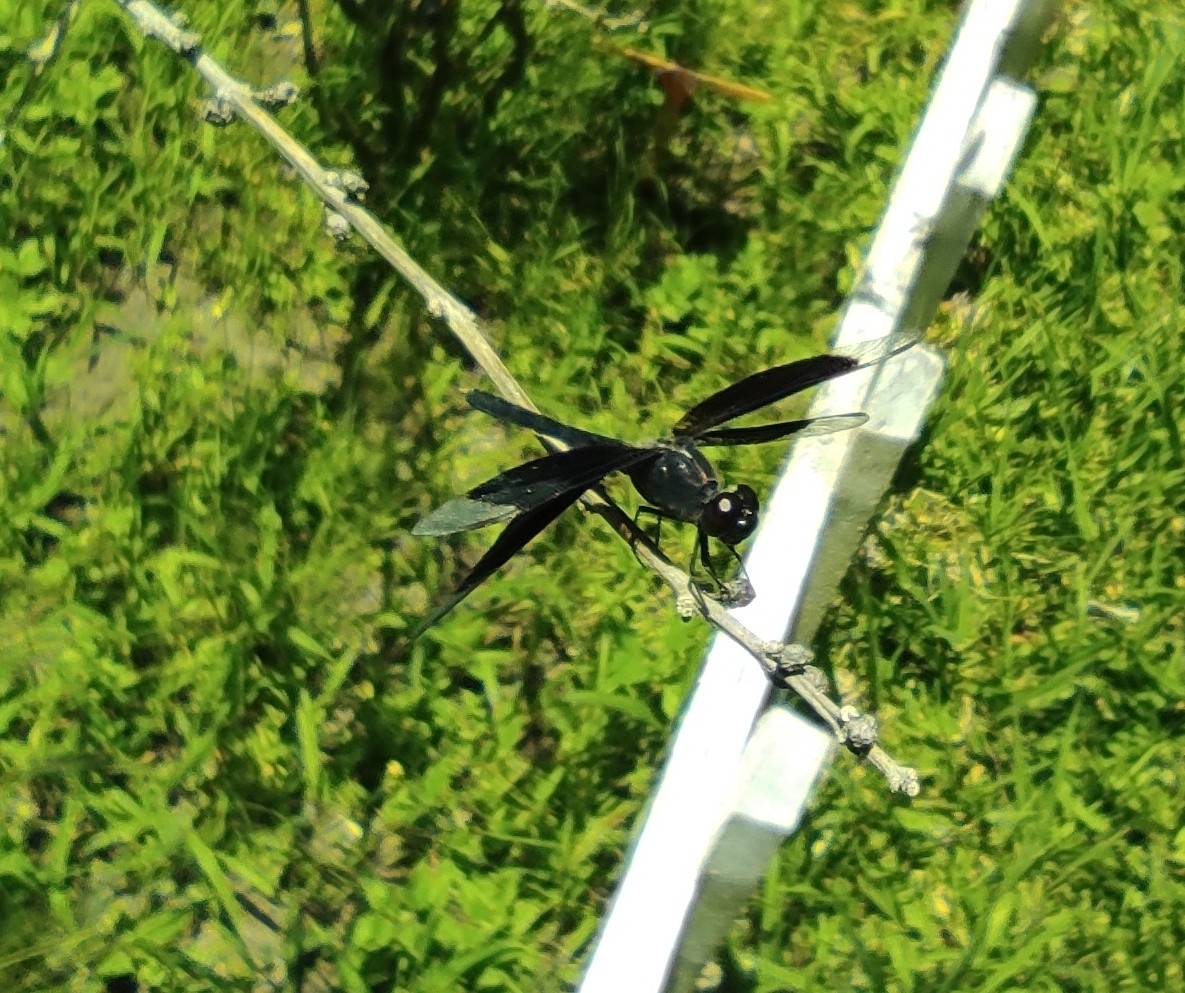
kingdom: Animalia
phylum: Arthropoda
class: Insecta
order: Odonata
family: Libellulidae
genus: Erythrodiplax
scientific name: Erythrodiplax funerea
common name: Black-winged dragonlet
